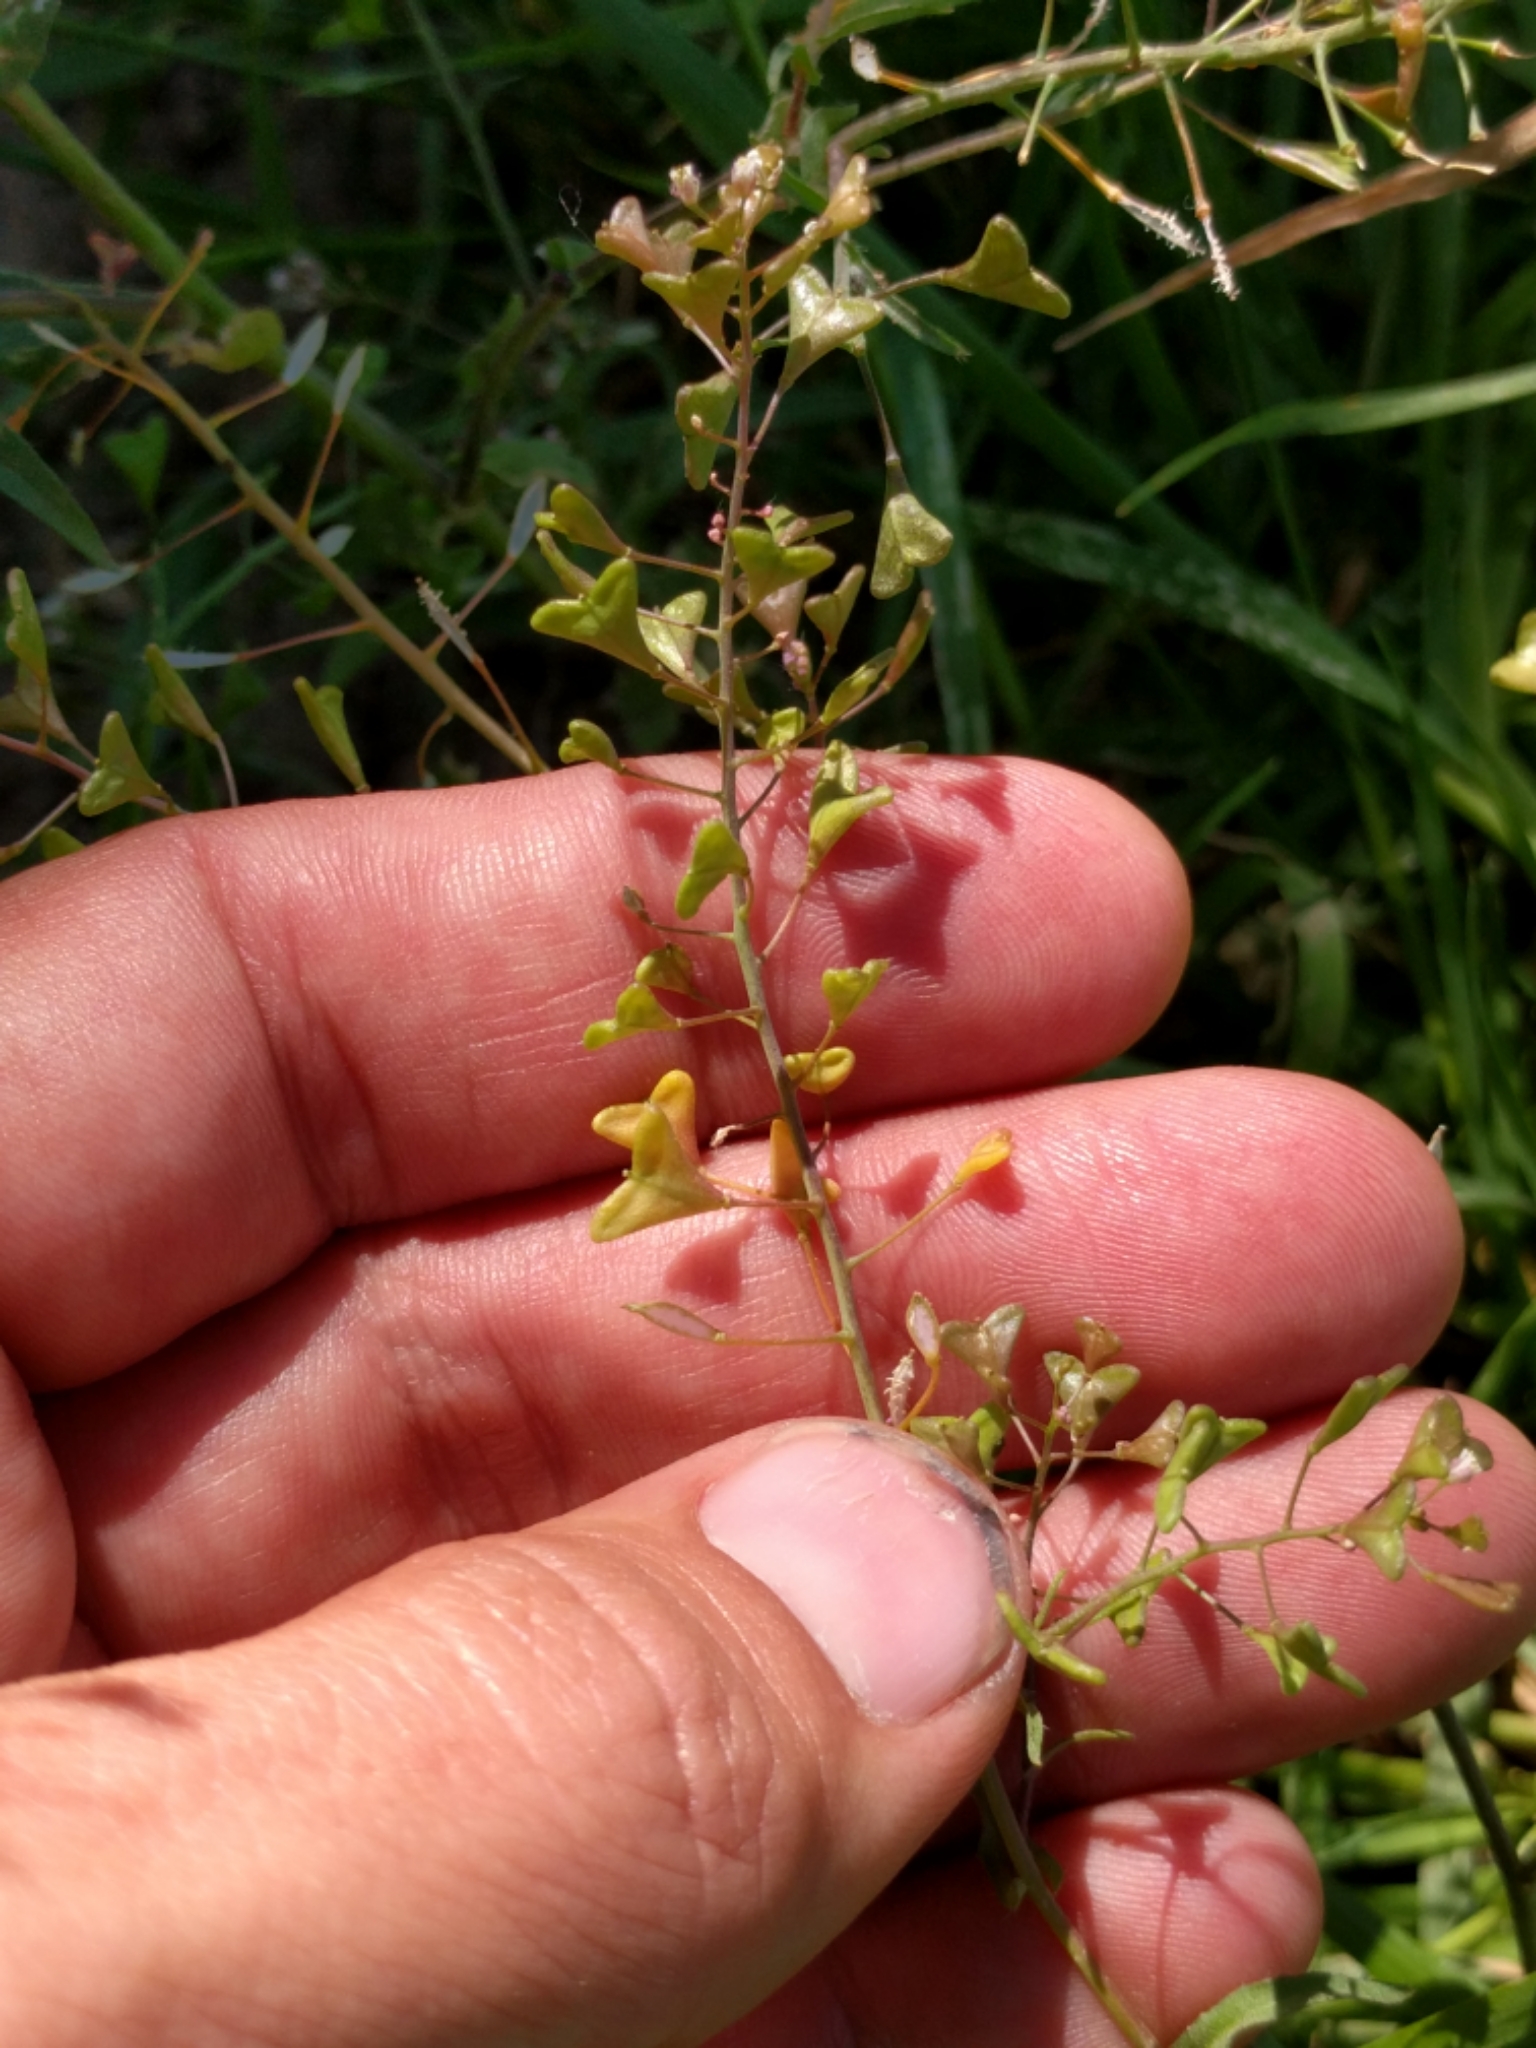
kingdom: Plantae
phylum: Tracheophyta
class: Magnoliopsida
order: Brassicales
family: Brassicaceae
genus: Capsella
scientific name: Capsella bursa-pastoris
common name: Shepherd's purse
